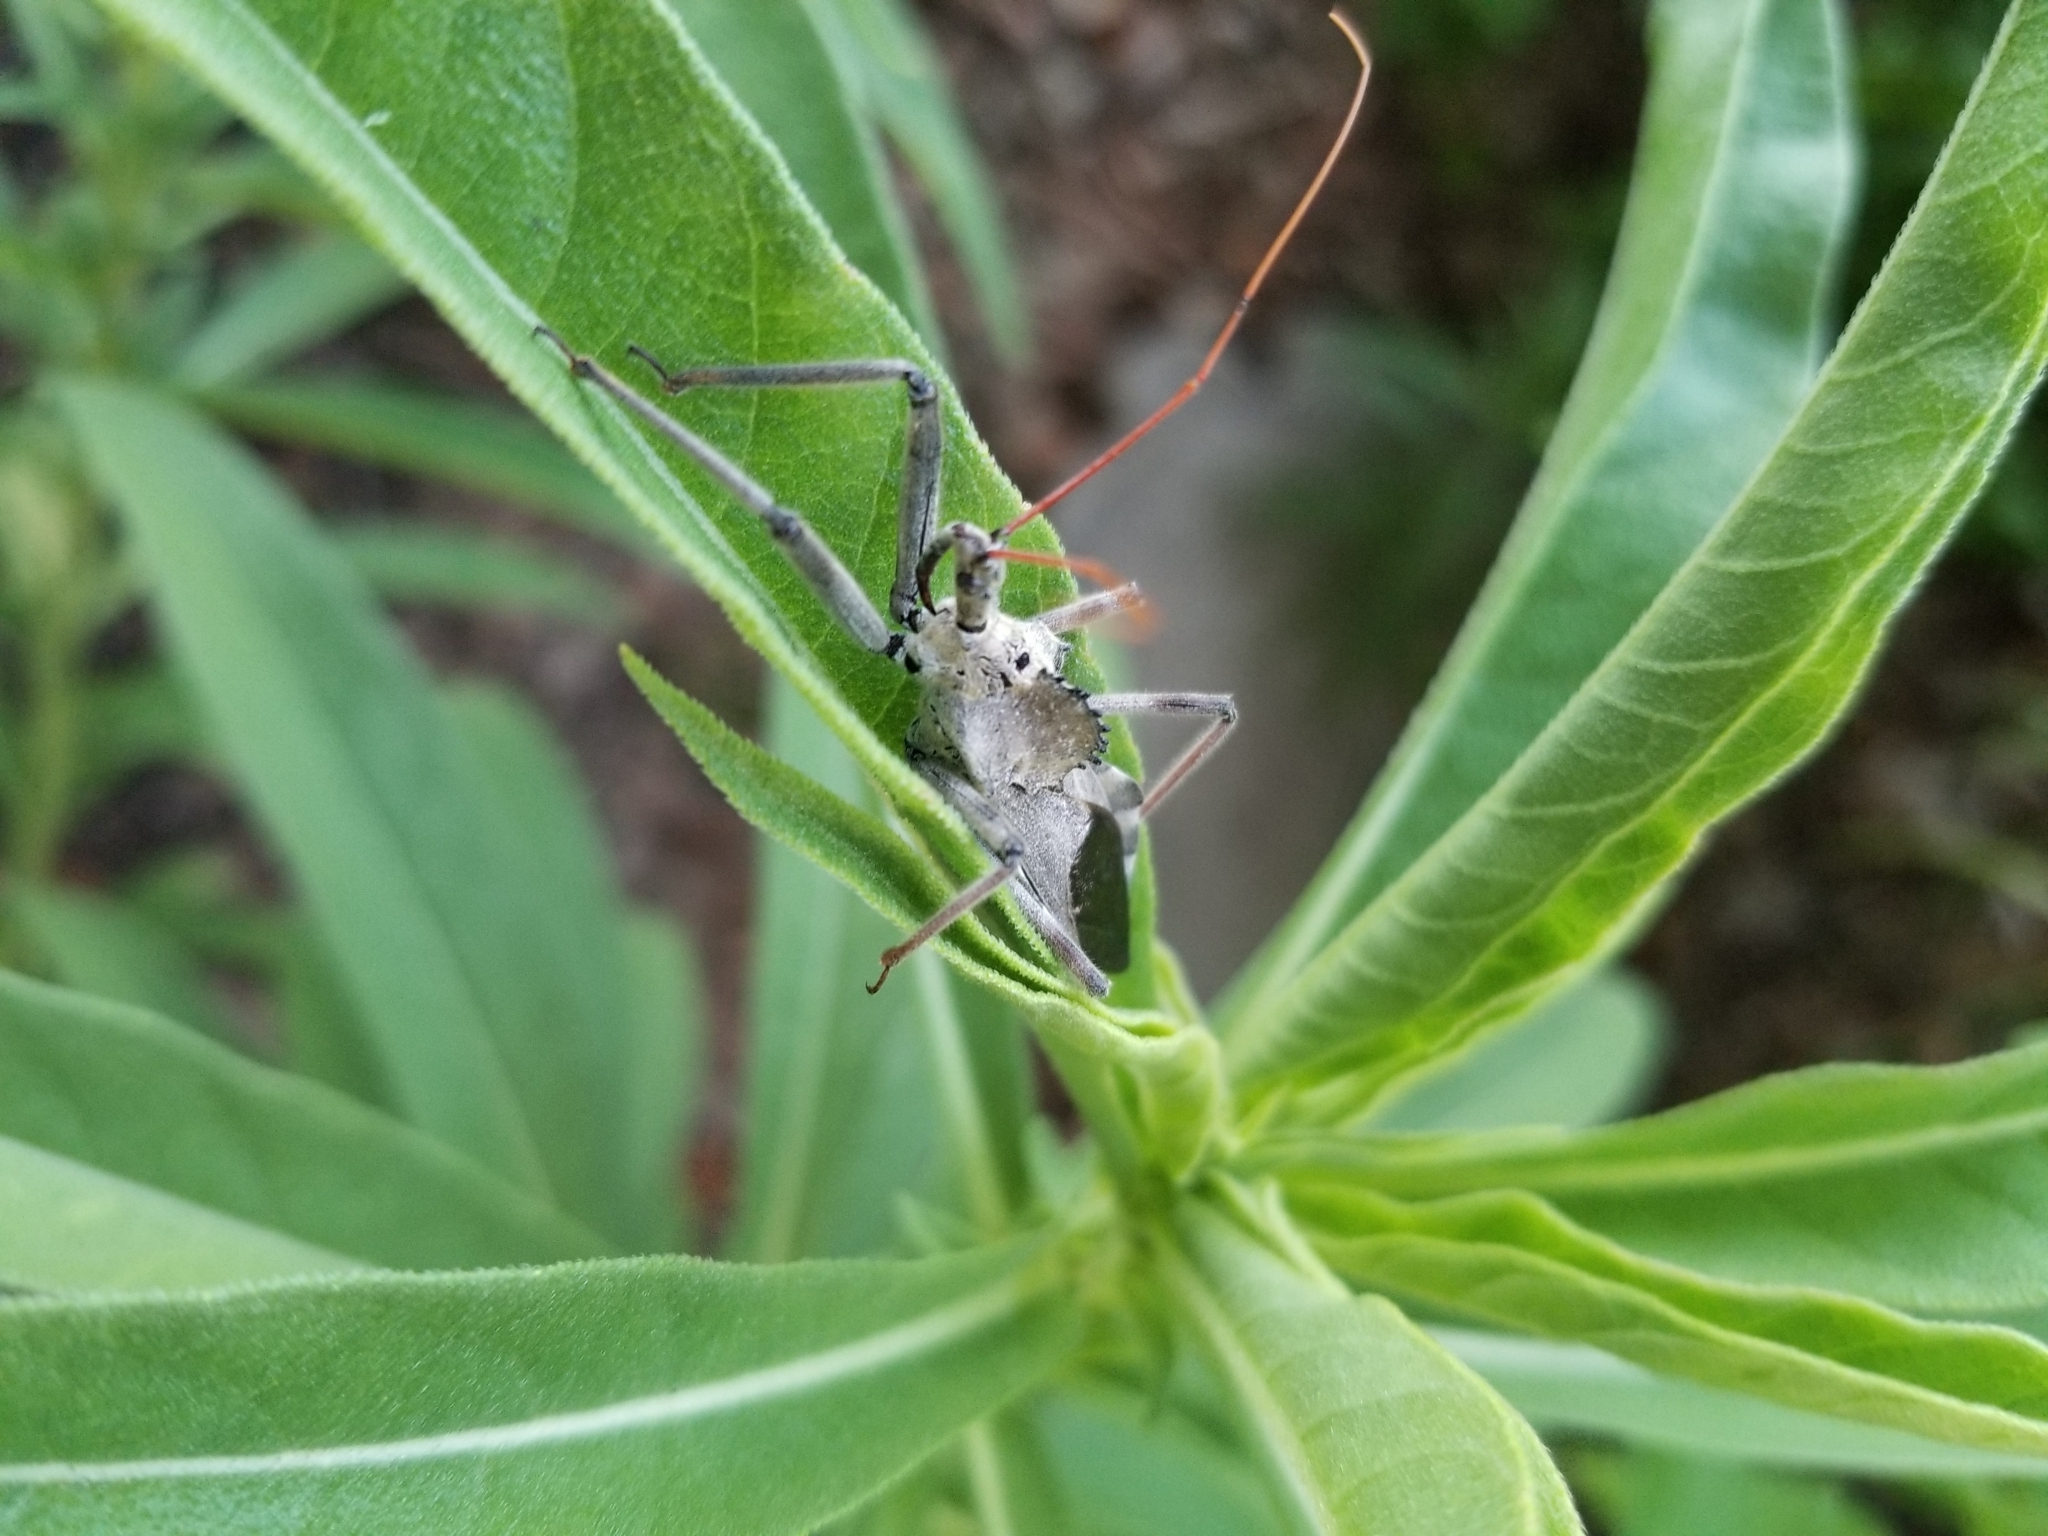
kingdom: Animalia
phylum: Arthropoda
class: Insecta
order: Hemiptera
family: Reduviidae
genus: Arilus
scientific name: Arilus cristatus
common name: North american wheel bug
